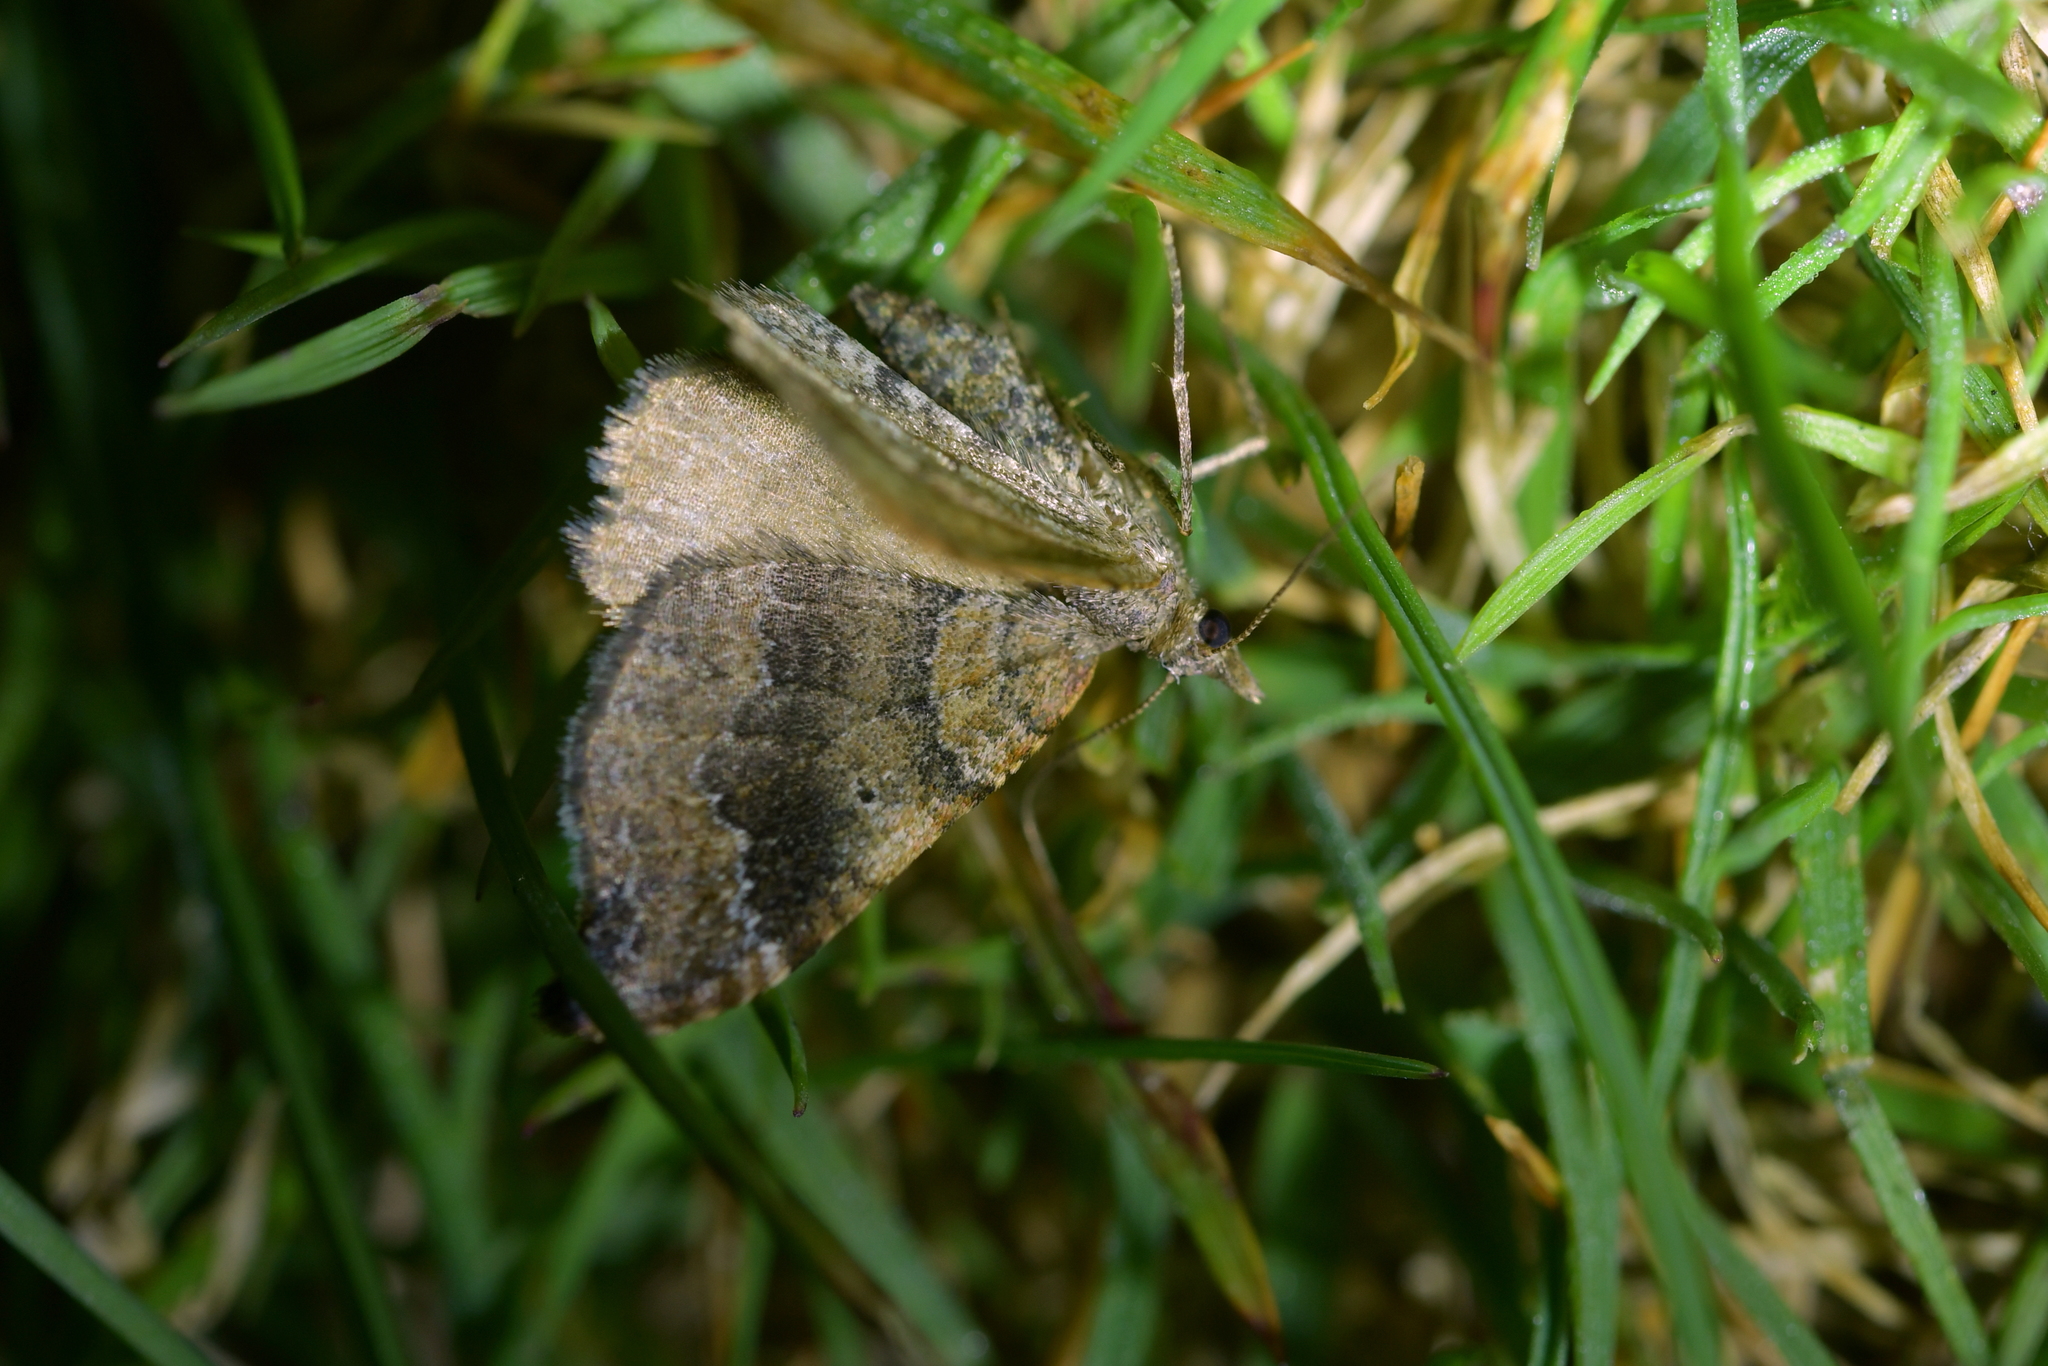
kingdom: Animalia
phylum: Arthropoda
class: Insecta
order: Lepidoptera
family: Geometridae
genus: Homodotis
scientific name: Homodotis megaspilata
